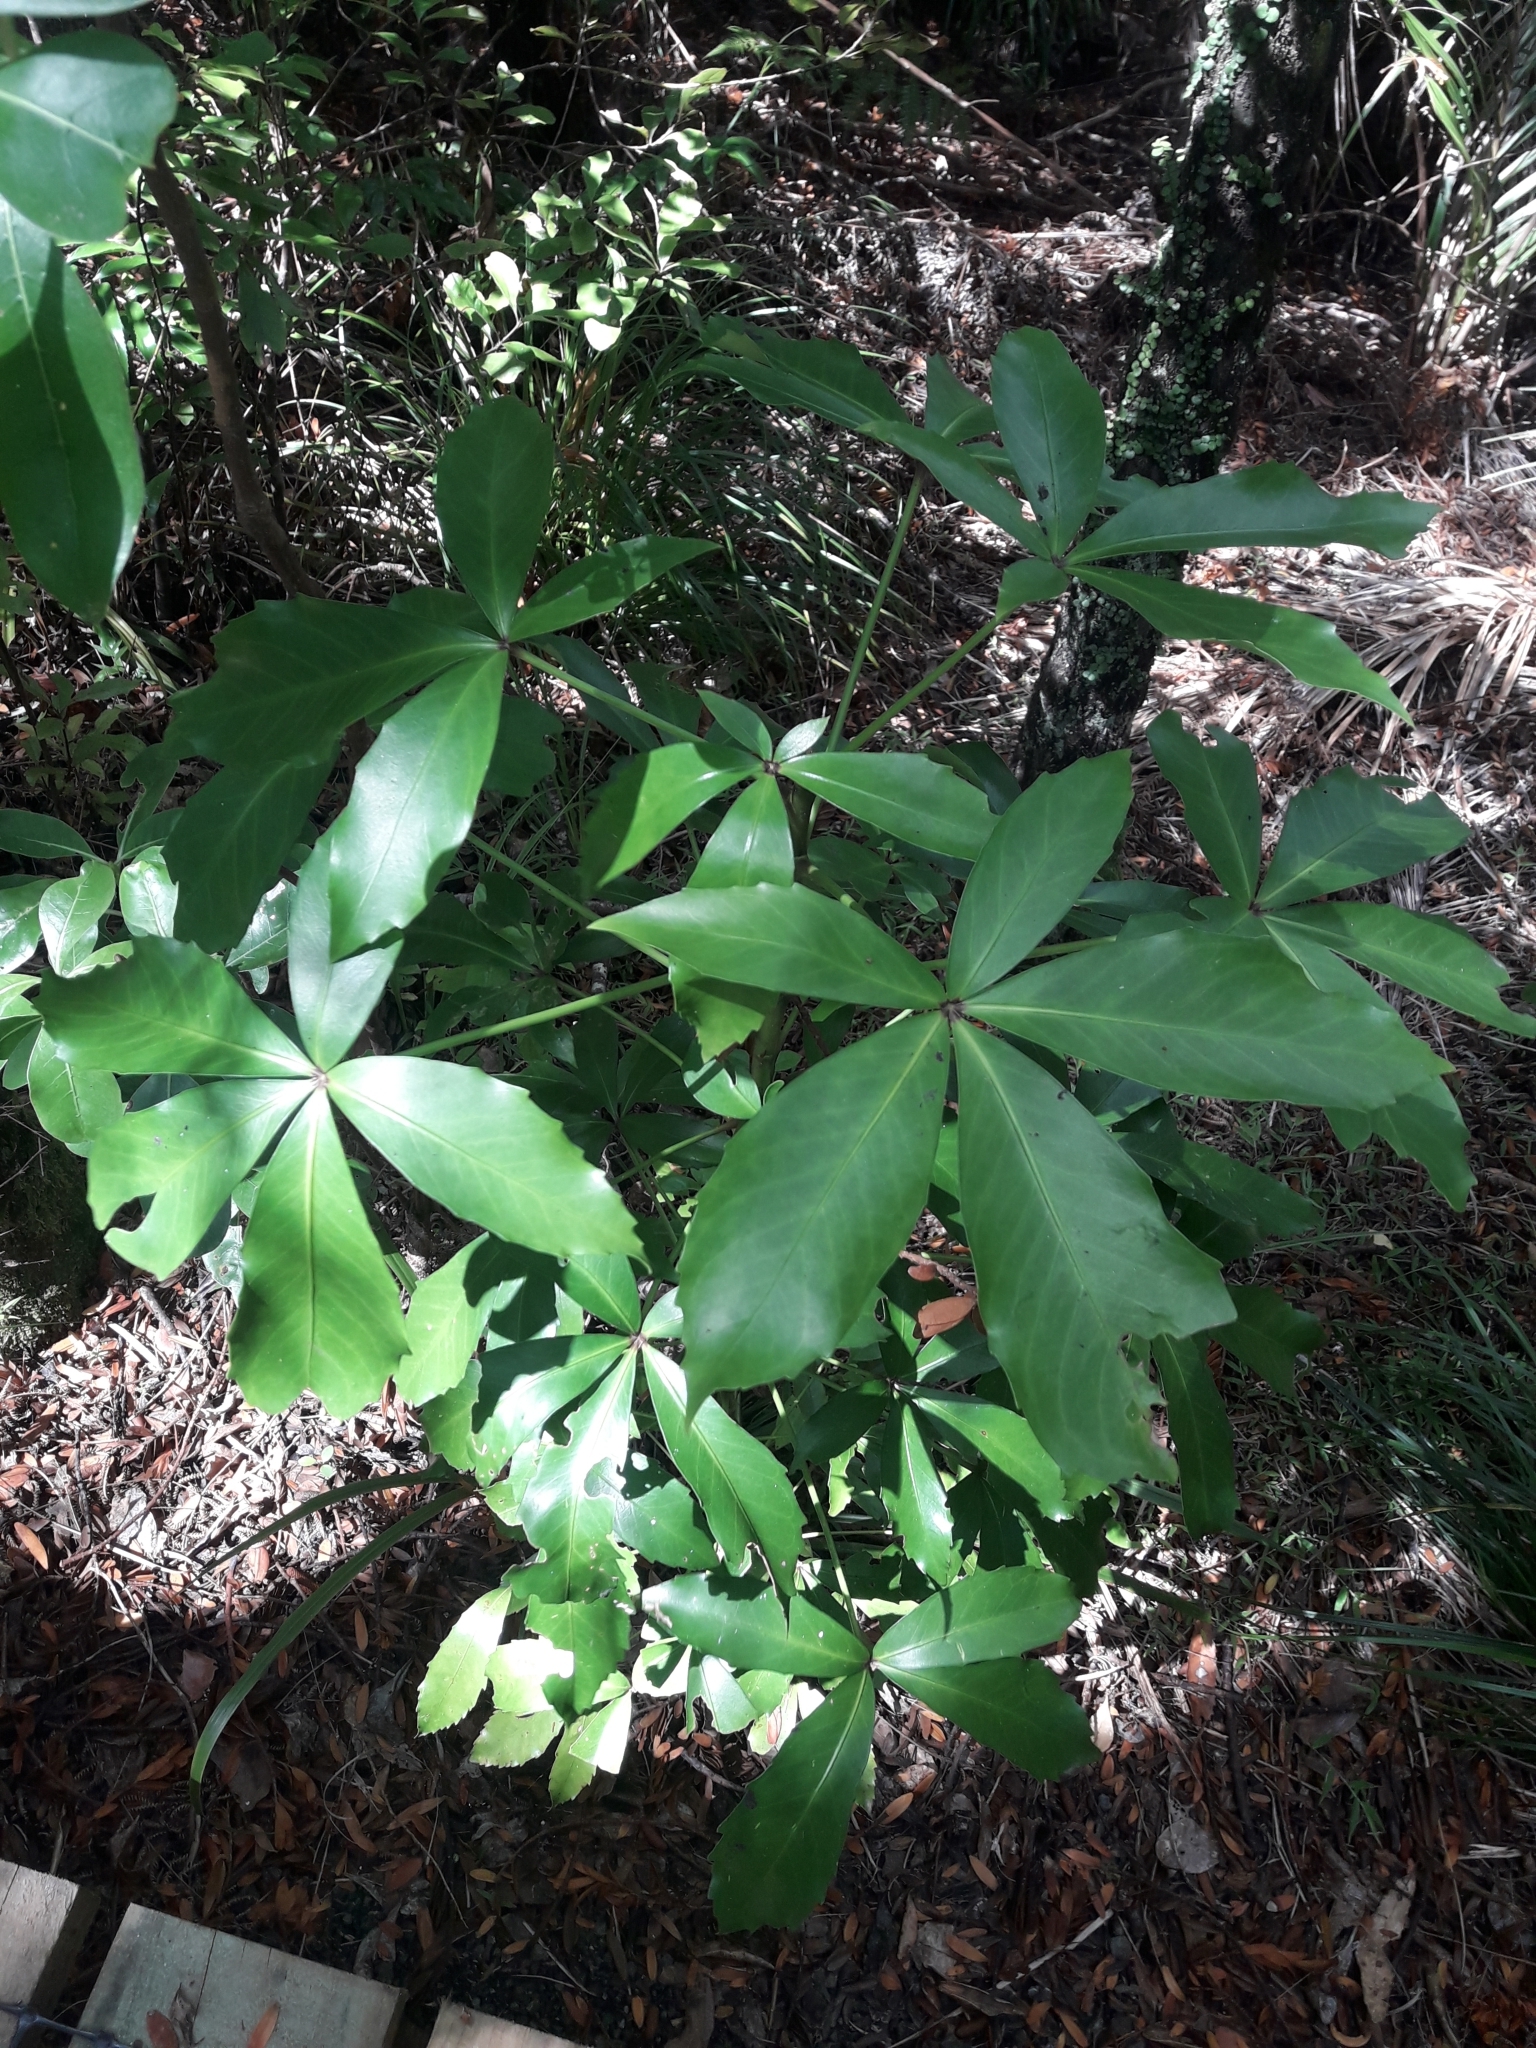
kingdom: Plantae
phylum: Tracheophyta
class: Magnoliopsida
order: Apiales
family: Araliaceae
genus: Pseudopanax
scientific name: Pseudopanax lessonii
